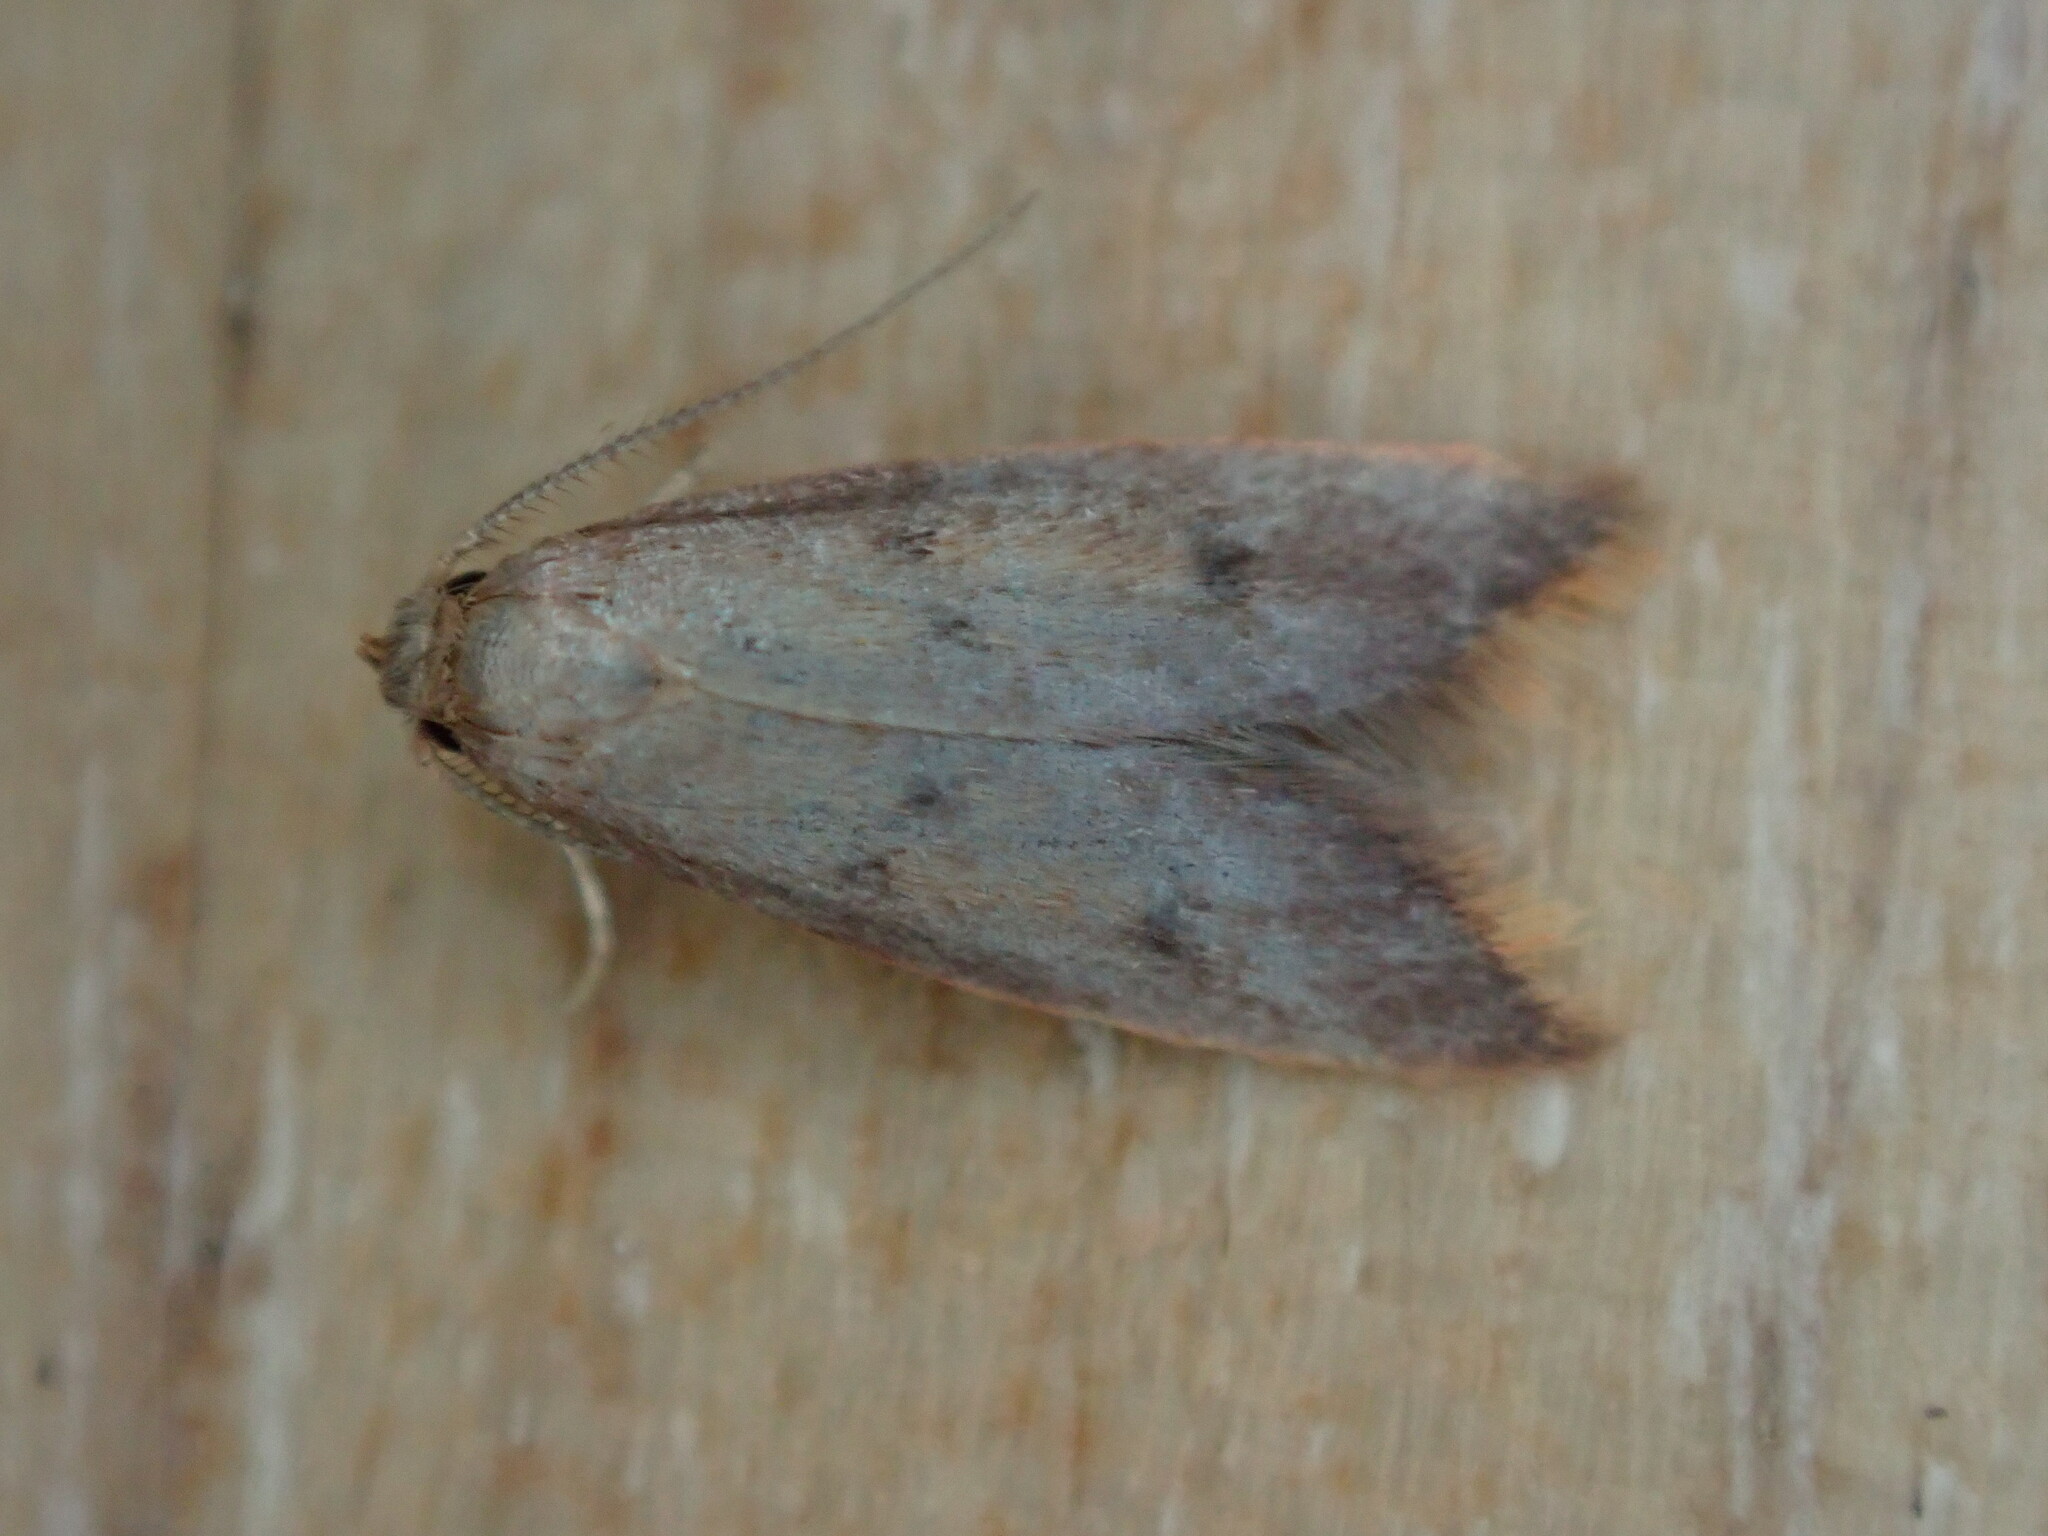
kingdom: Animalia
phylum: Arthropoda
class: Insecta
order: Lepidoptera
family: Oecophoridae
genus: Tachystola
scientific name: Tachystola acroxantha
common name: Ruddy streak
